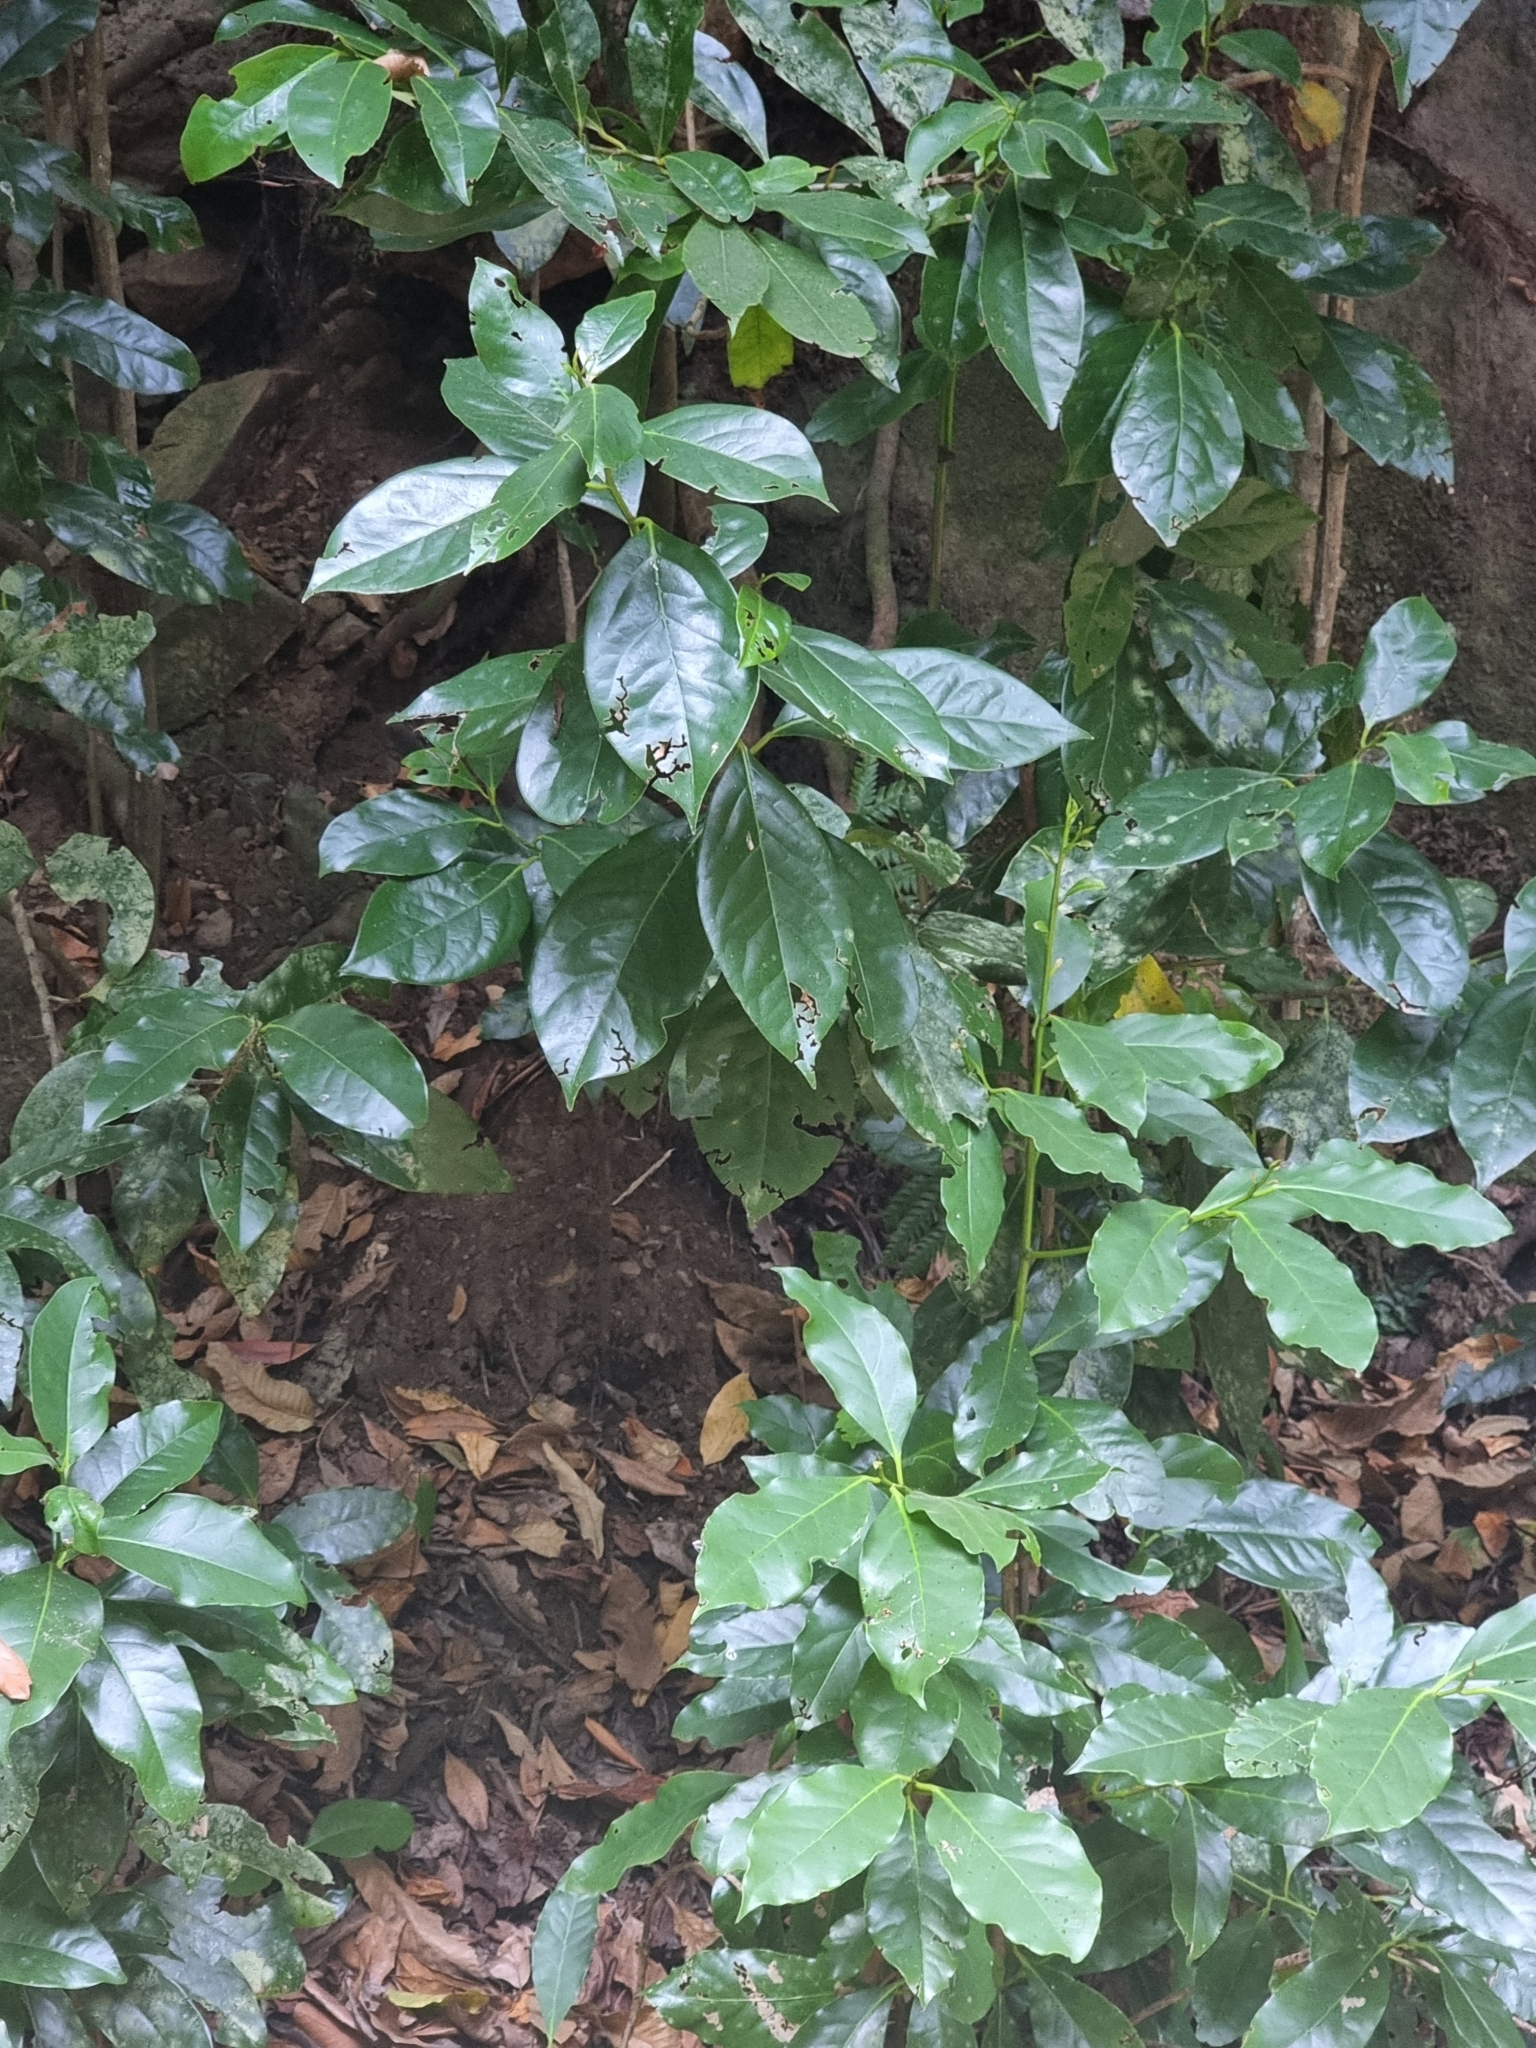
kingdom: Plantae
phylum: Tracheophyta
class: Magnoliopsida
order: Laurales
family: Lauraceae
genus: Mespilodaphne
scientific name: Mespilodaphne foetens
